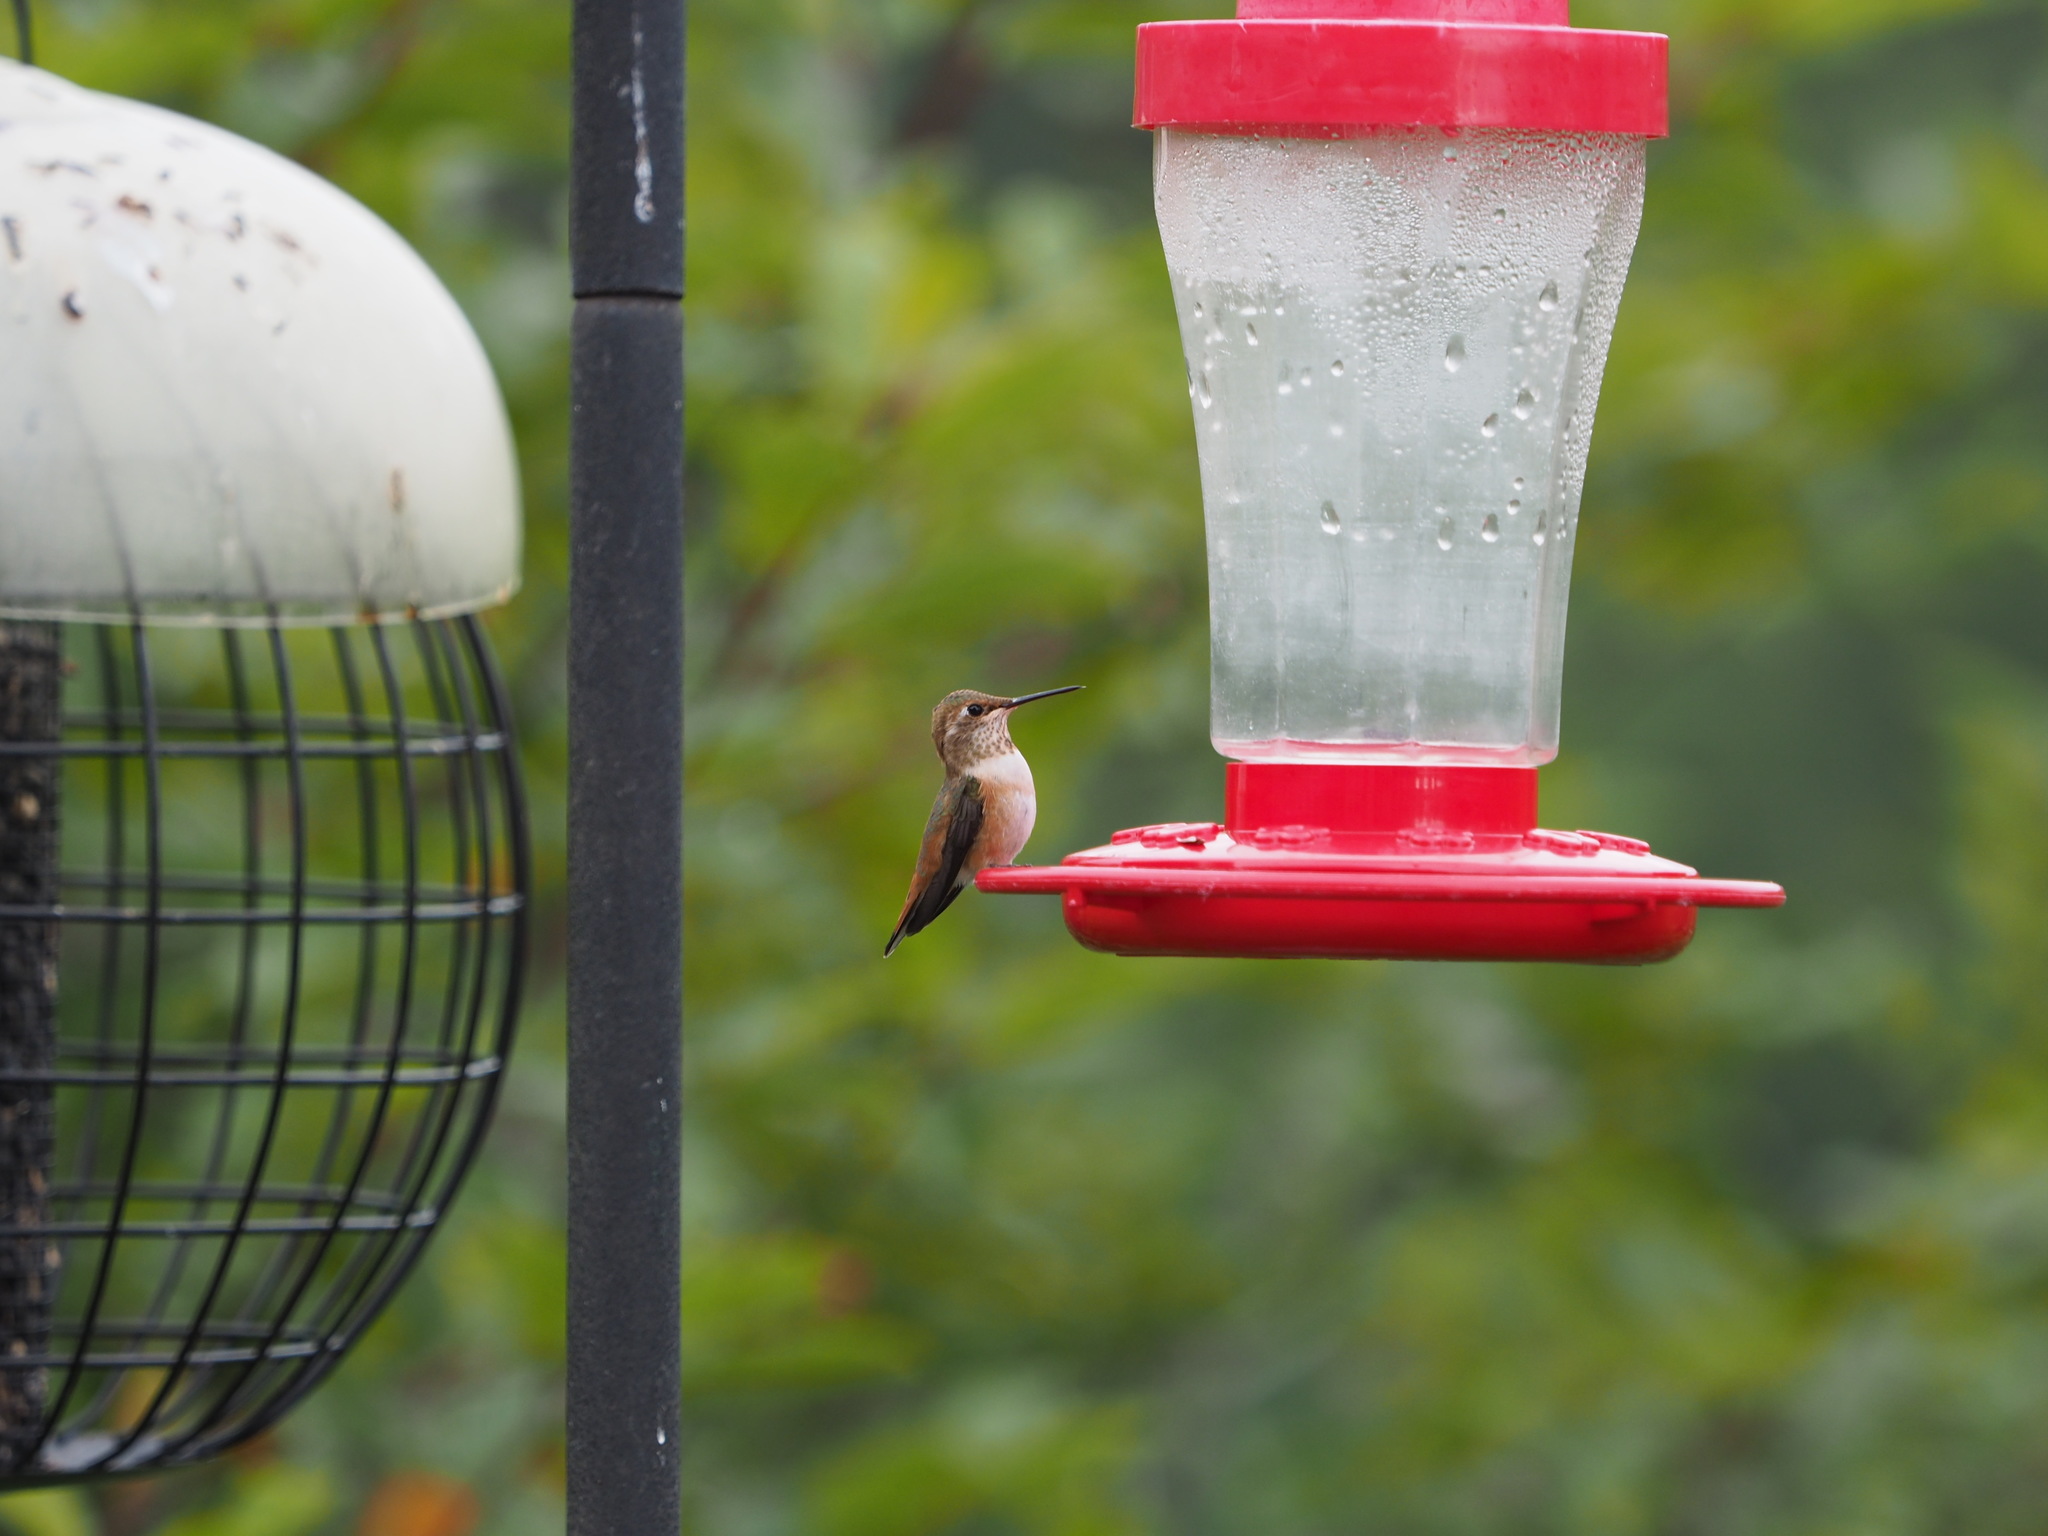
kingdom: Animalia
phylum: Chordata
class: Aves
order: Apodiformes
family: Trochilidae
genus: Selasphorus
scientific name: Selasphorus rufus
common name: Rufous hummingbird
